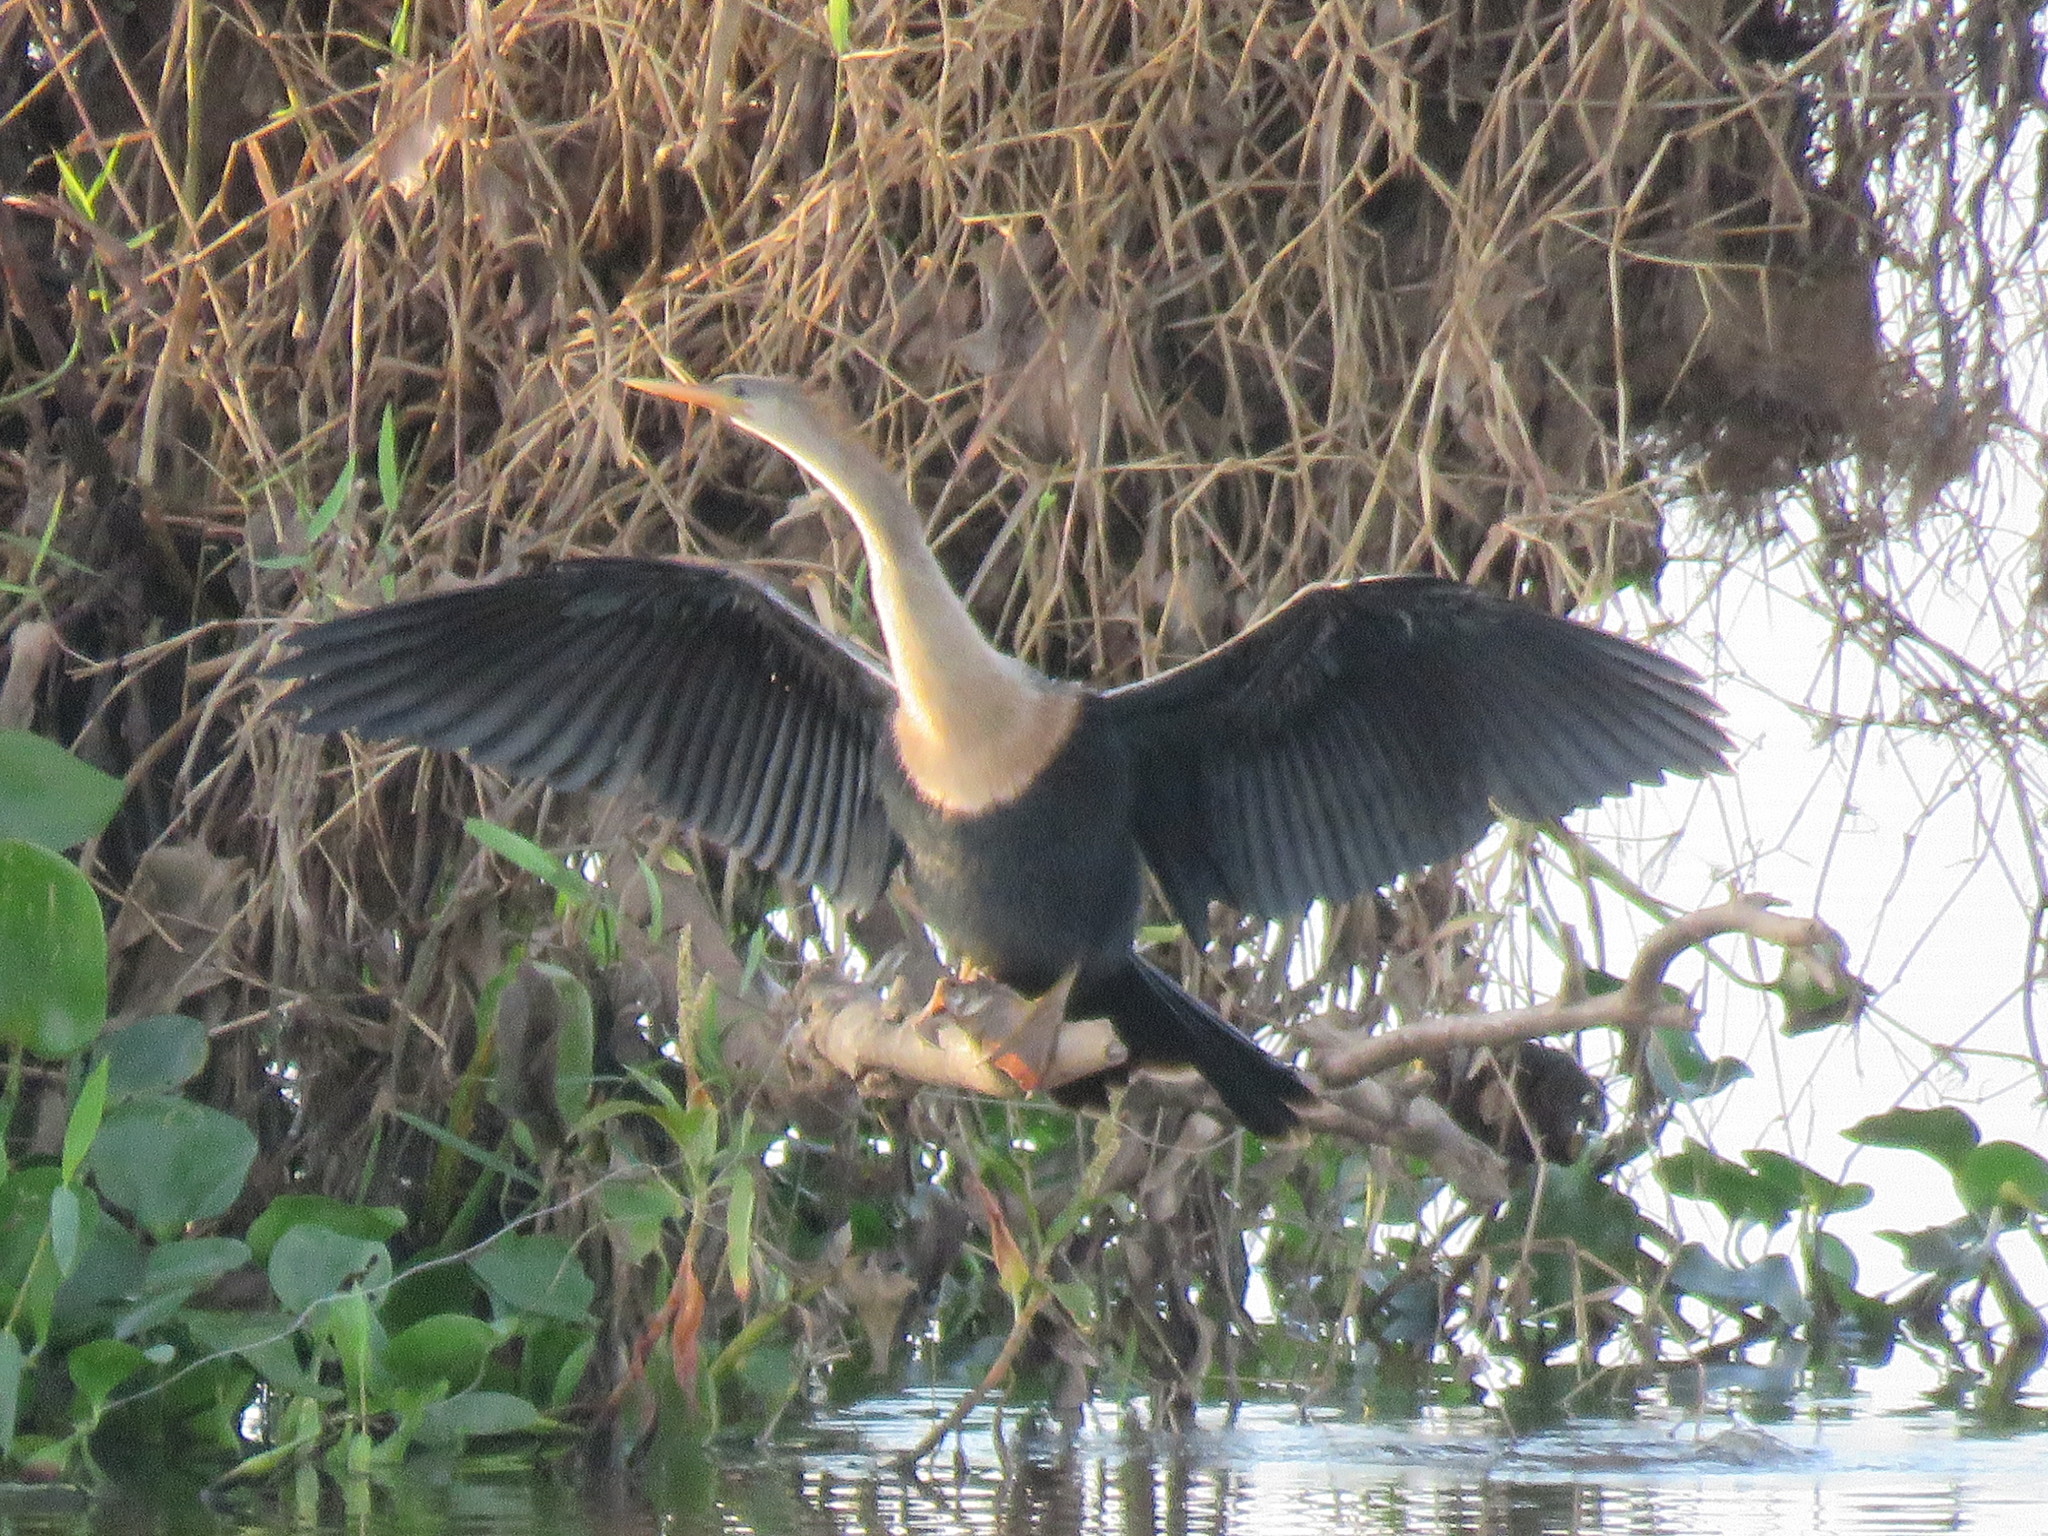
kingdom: Animalia
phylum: Chordata
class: Aves
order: Suliformes
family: Anhingidae
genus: Anhinga
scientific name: Anhinga anhinga
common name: Anhinga
